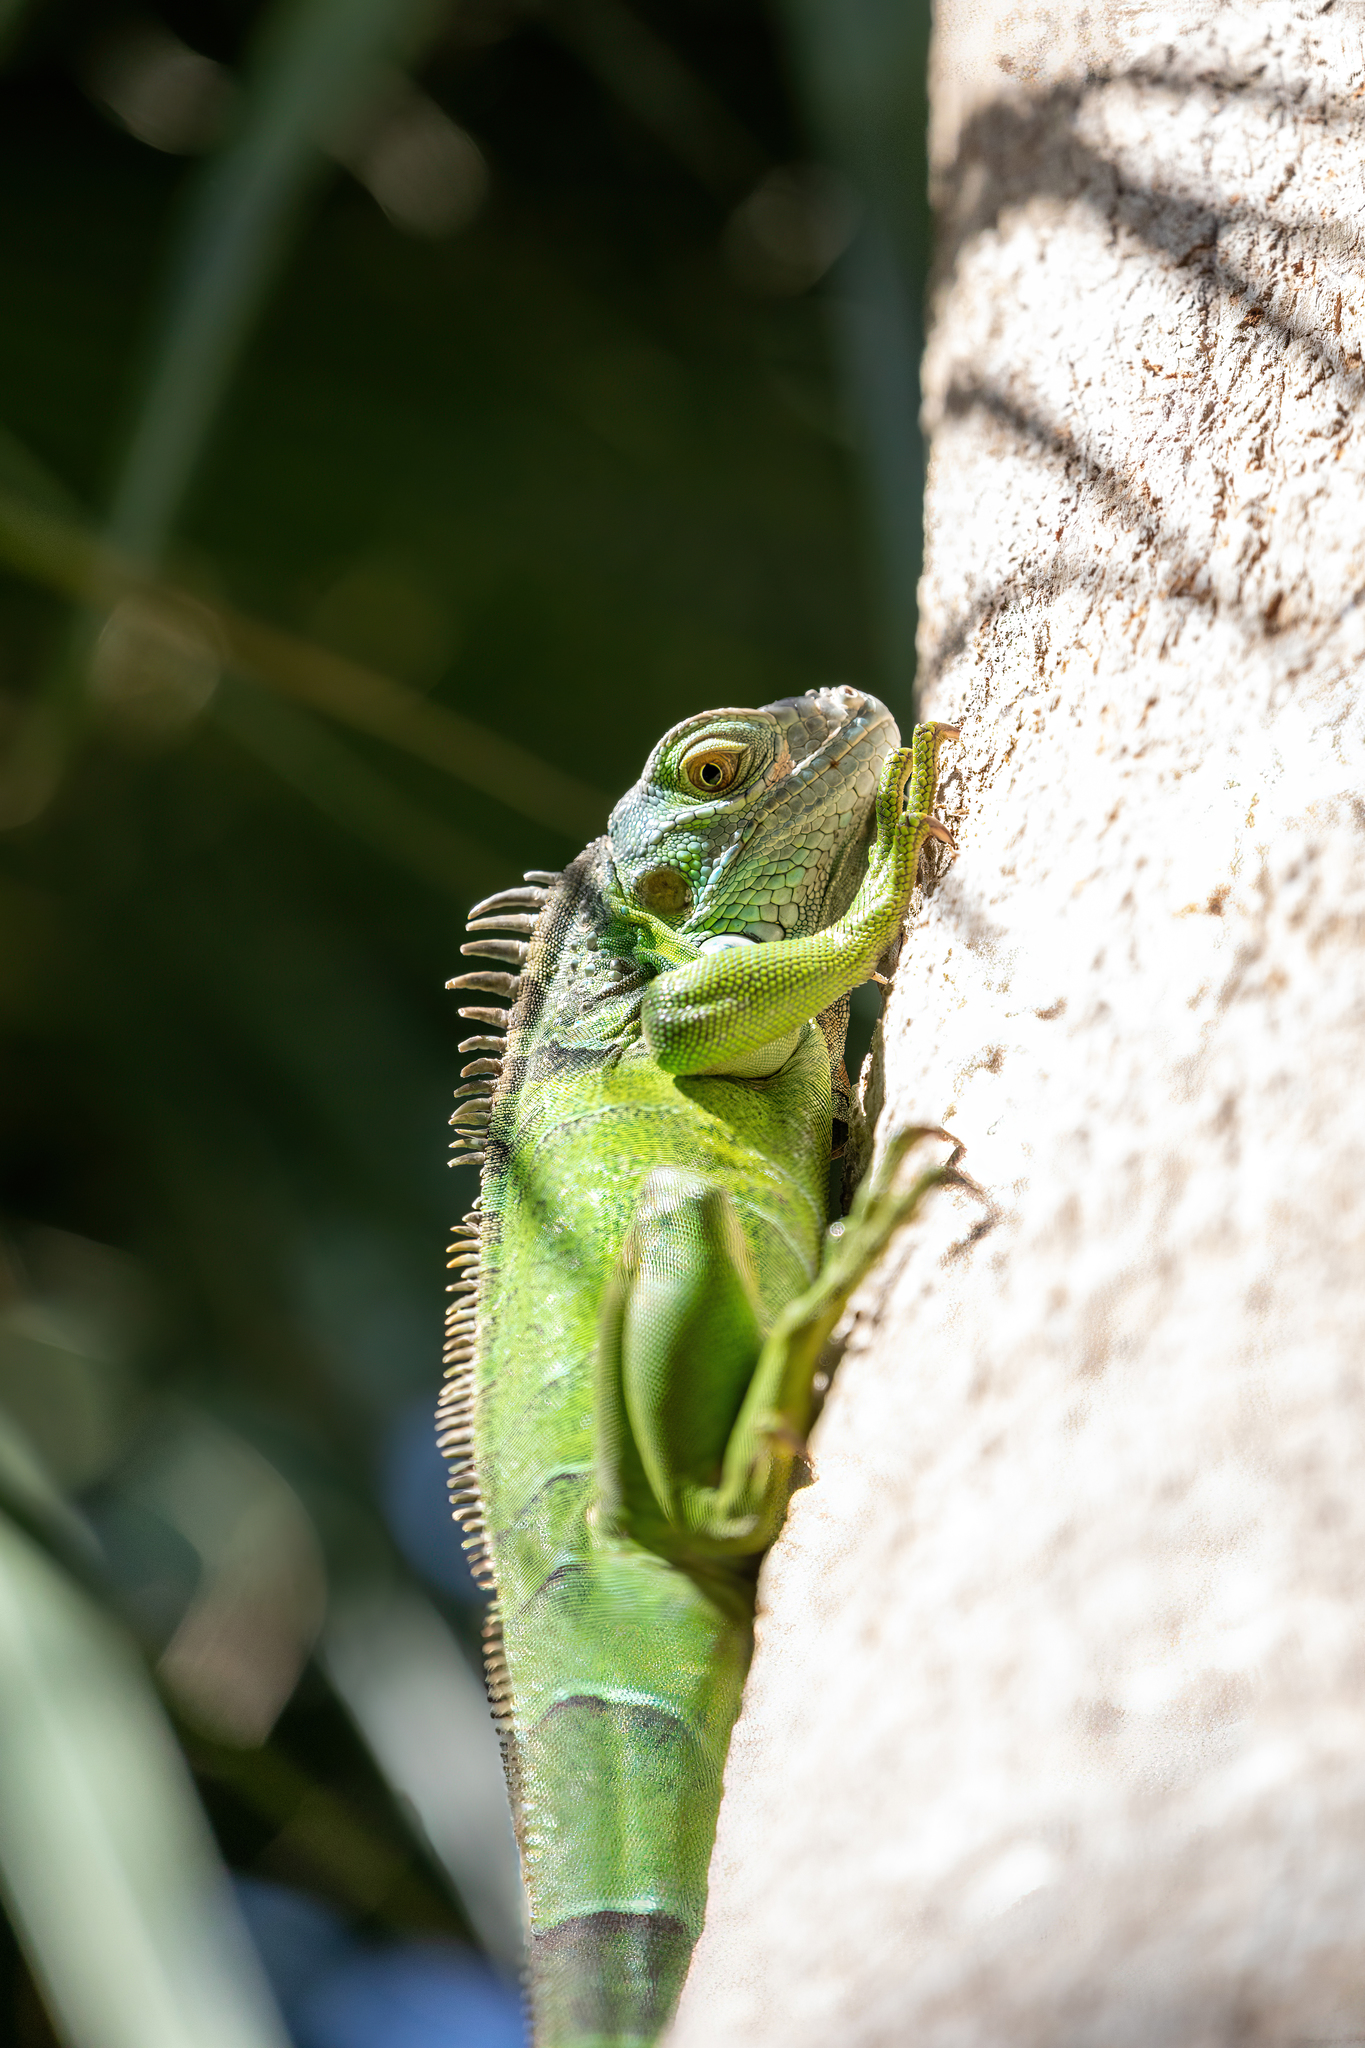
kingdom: Animalia
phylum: Chordata
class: Squamata
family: Iguanidae
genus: Iguana
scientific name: Iguana iguana
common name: Green iguana
